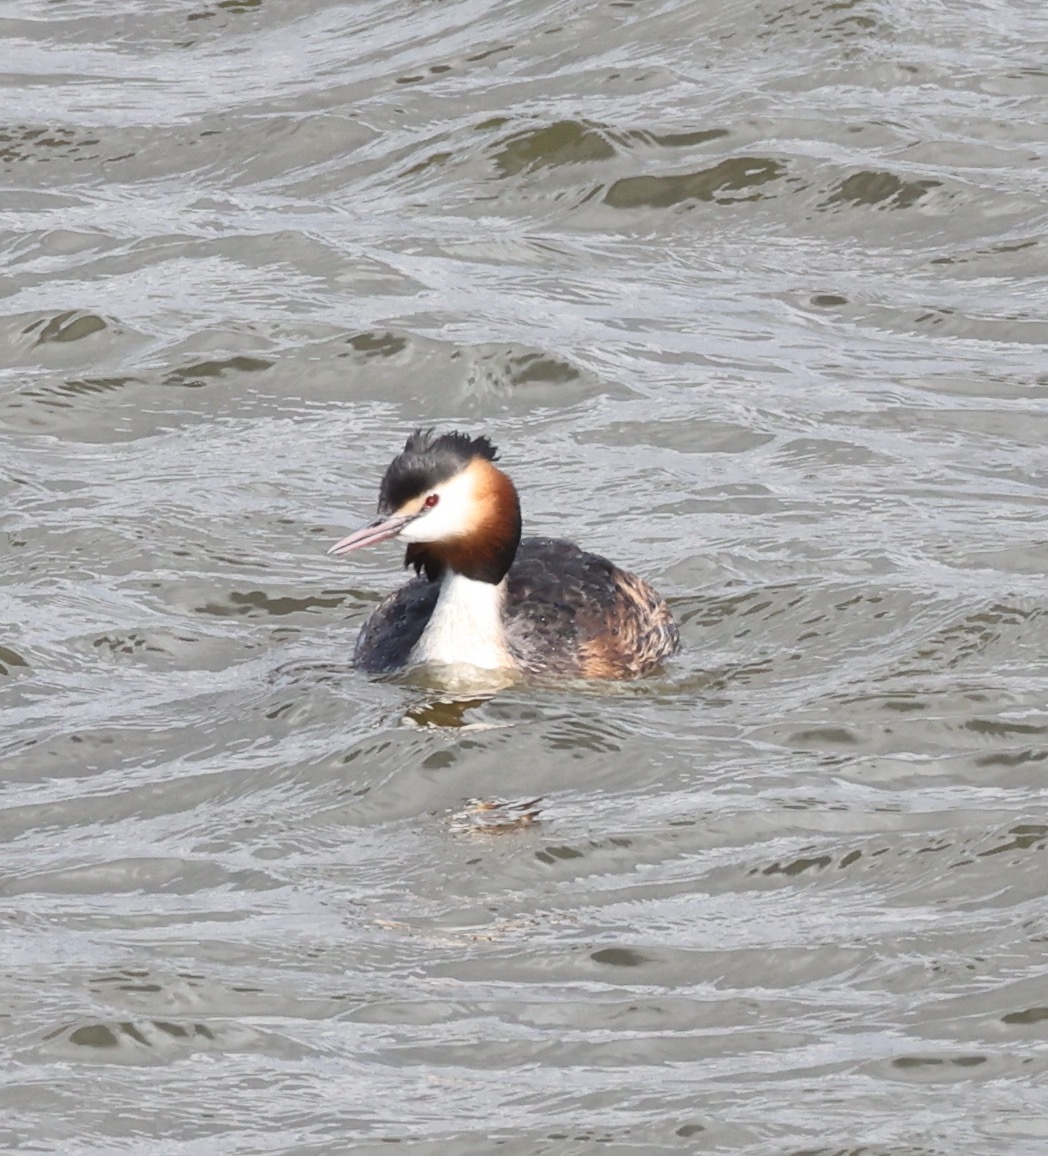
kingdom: Animalia
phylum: Chordata
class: Aves
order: Podicipediformes
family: Podicipedidae
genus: Podiceps
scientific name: Podiceps cristatus
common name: Great crested grebe
